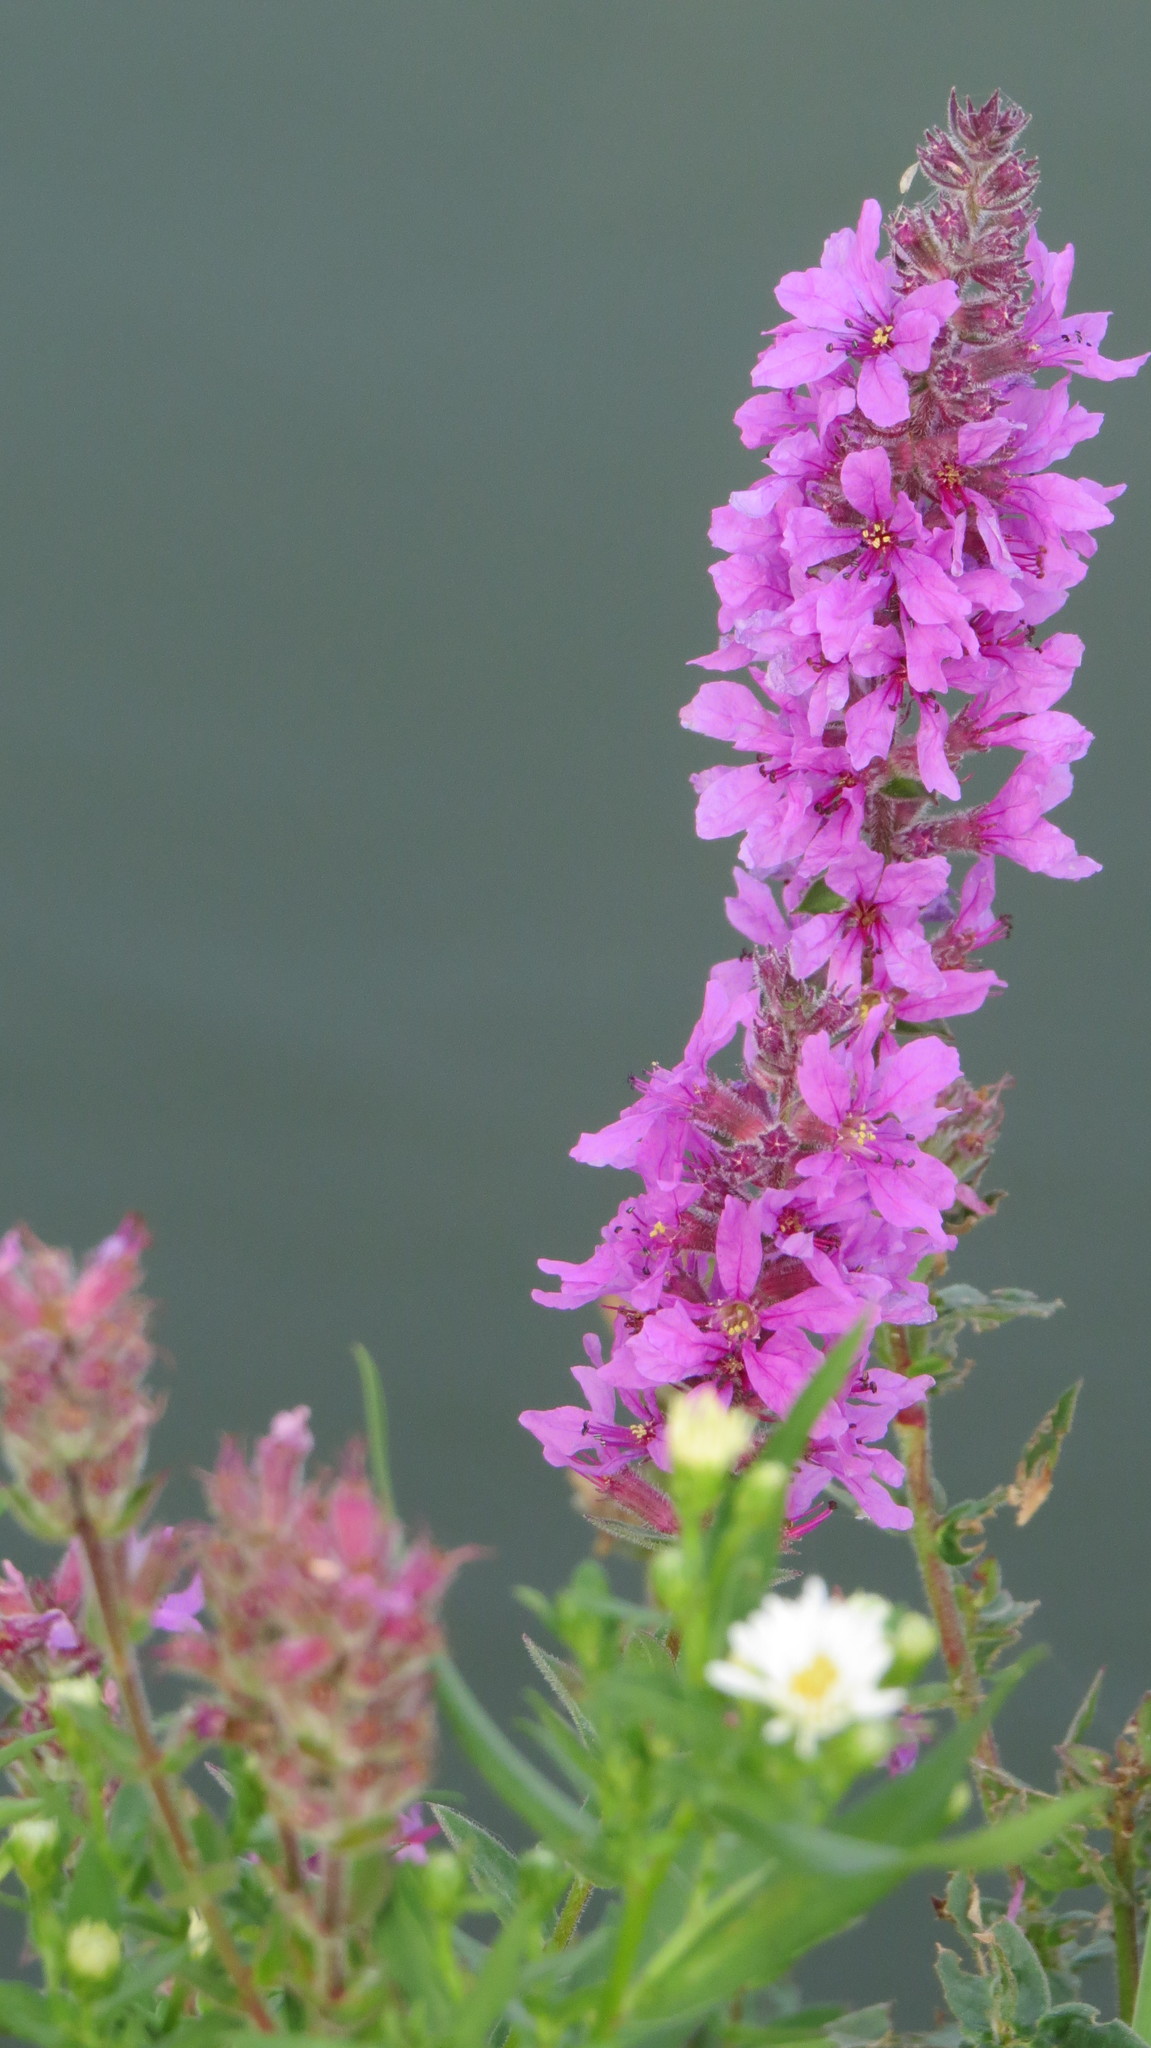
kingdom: Plantae
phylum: Tracheophyta
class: Magnoliopsida
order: Myrtales
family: Lythraceae
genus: Lythrum
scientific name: Lythrum salicaria
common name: Purple loosestrife
